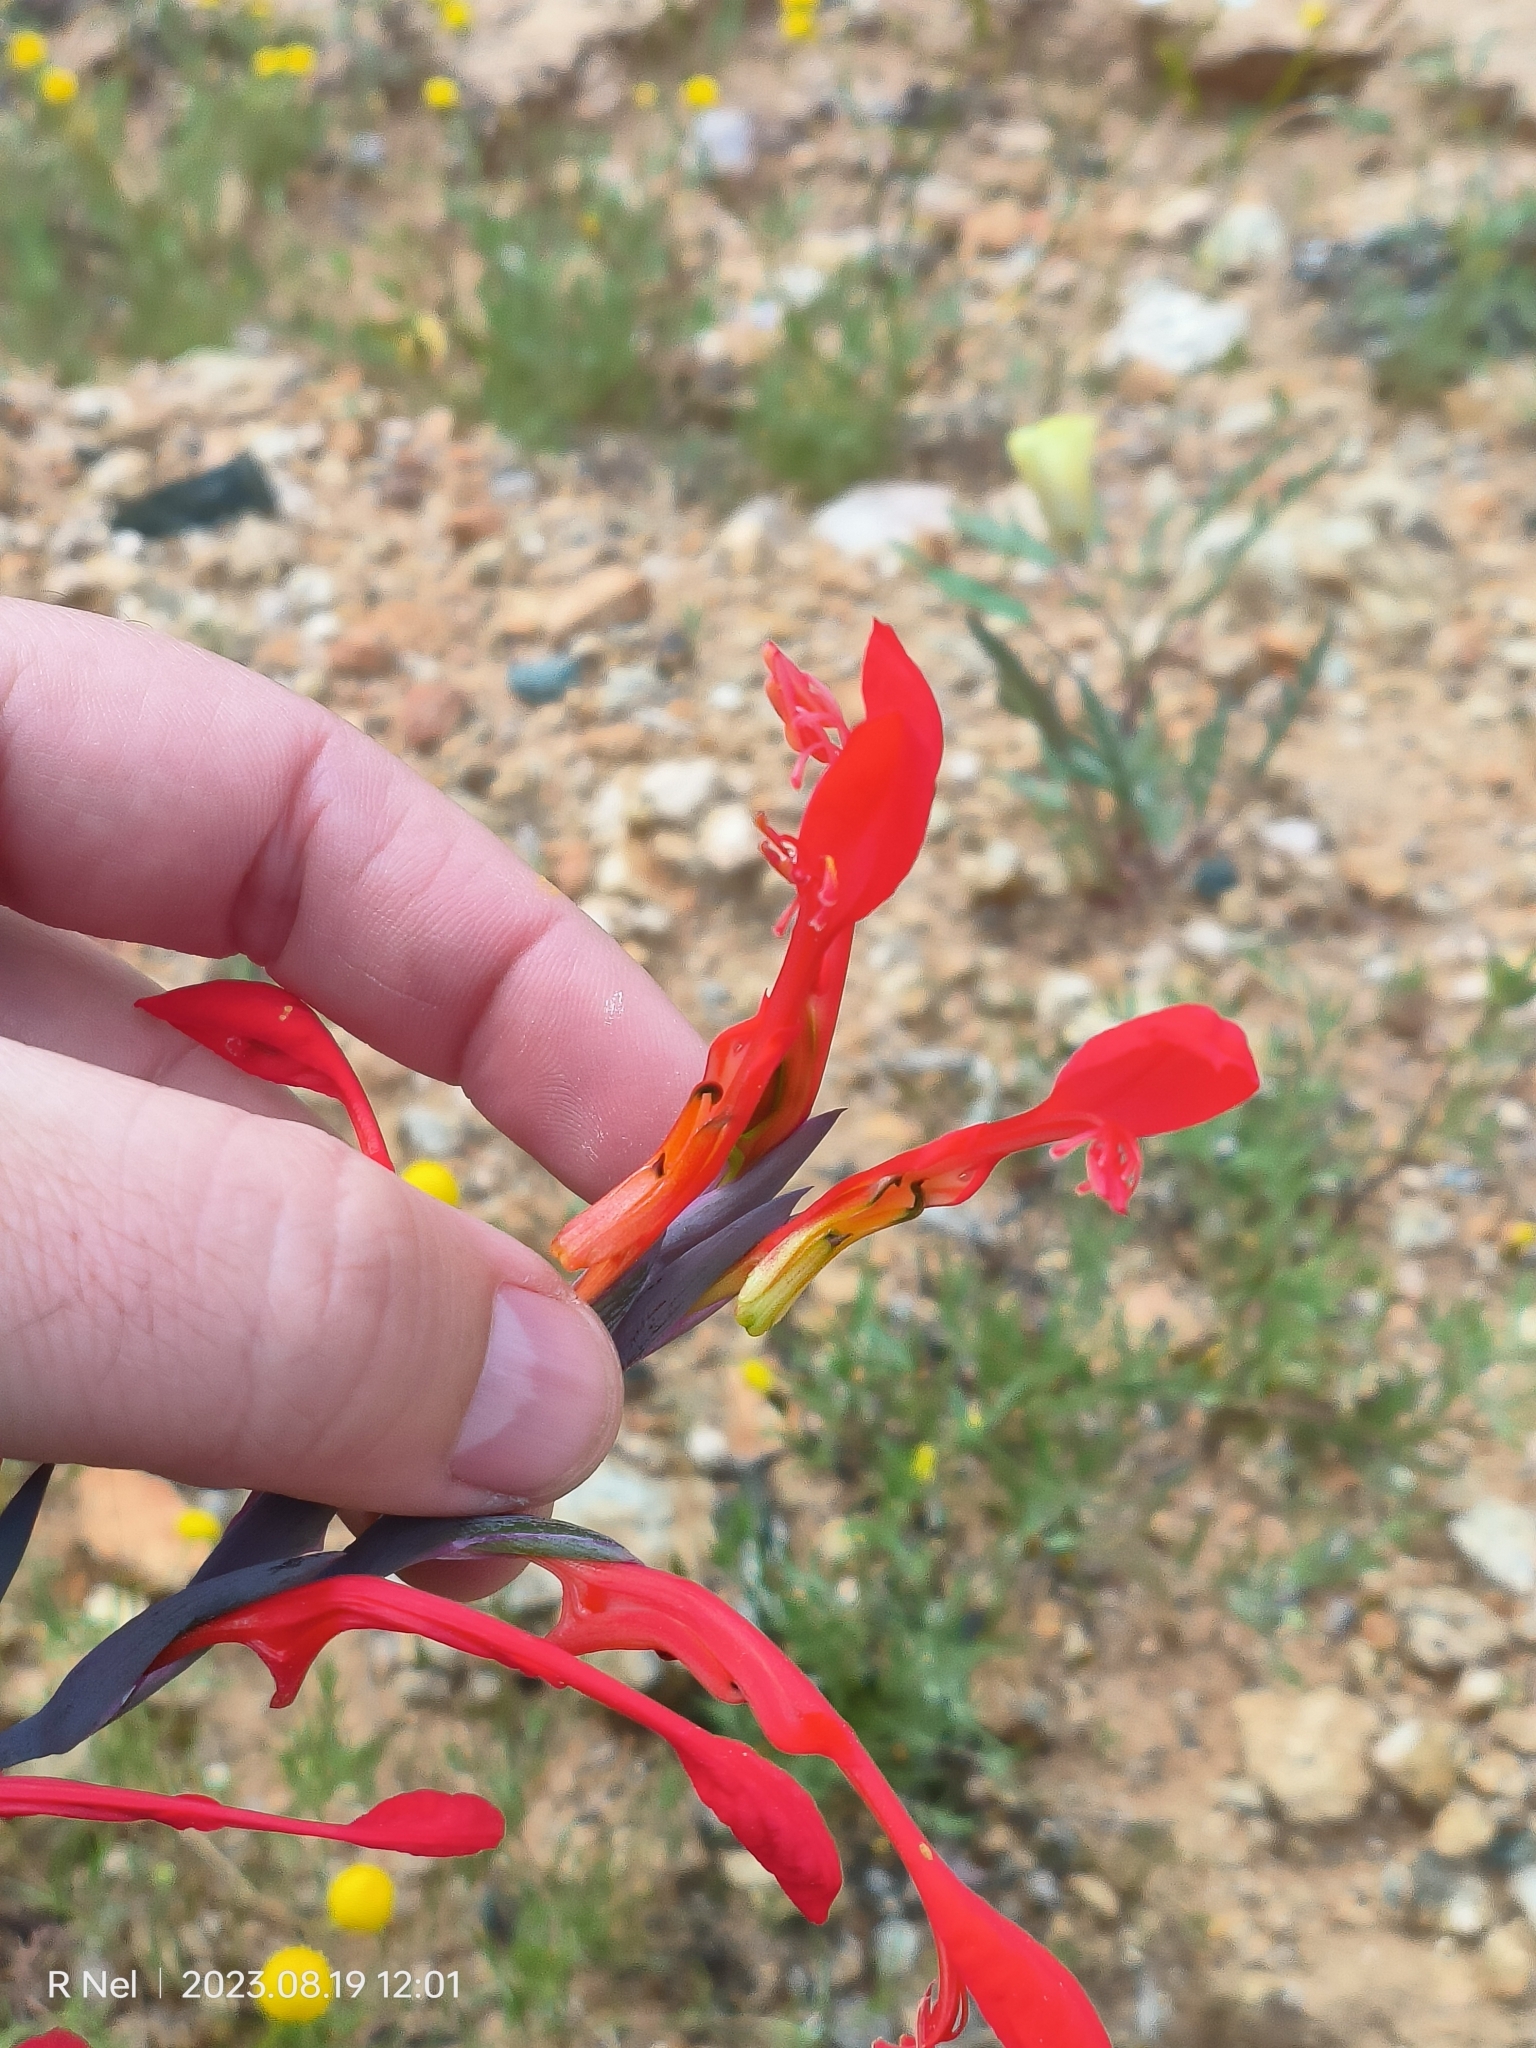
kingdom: Plantae
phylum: Tracheophyta
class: Liliopsida
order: Asparagales
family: Iridaceae
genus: Gladiolus
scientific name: Gladiolus saccatus
